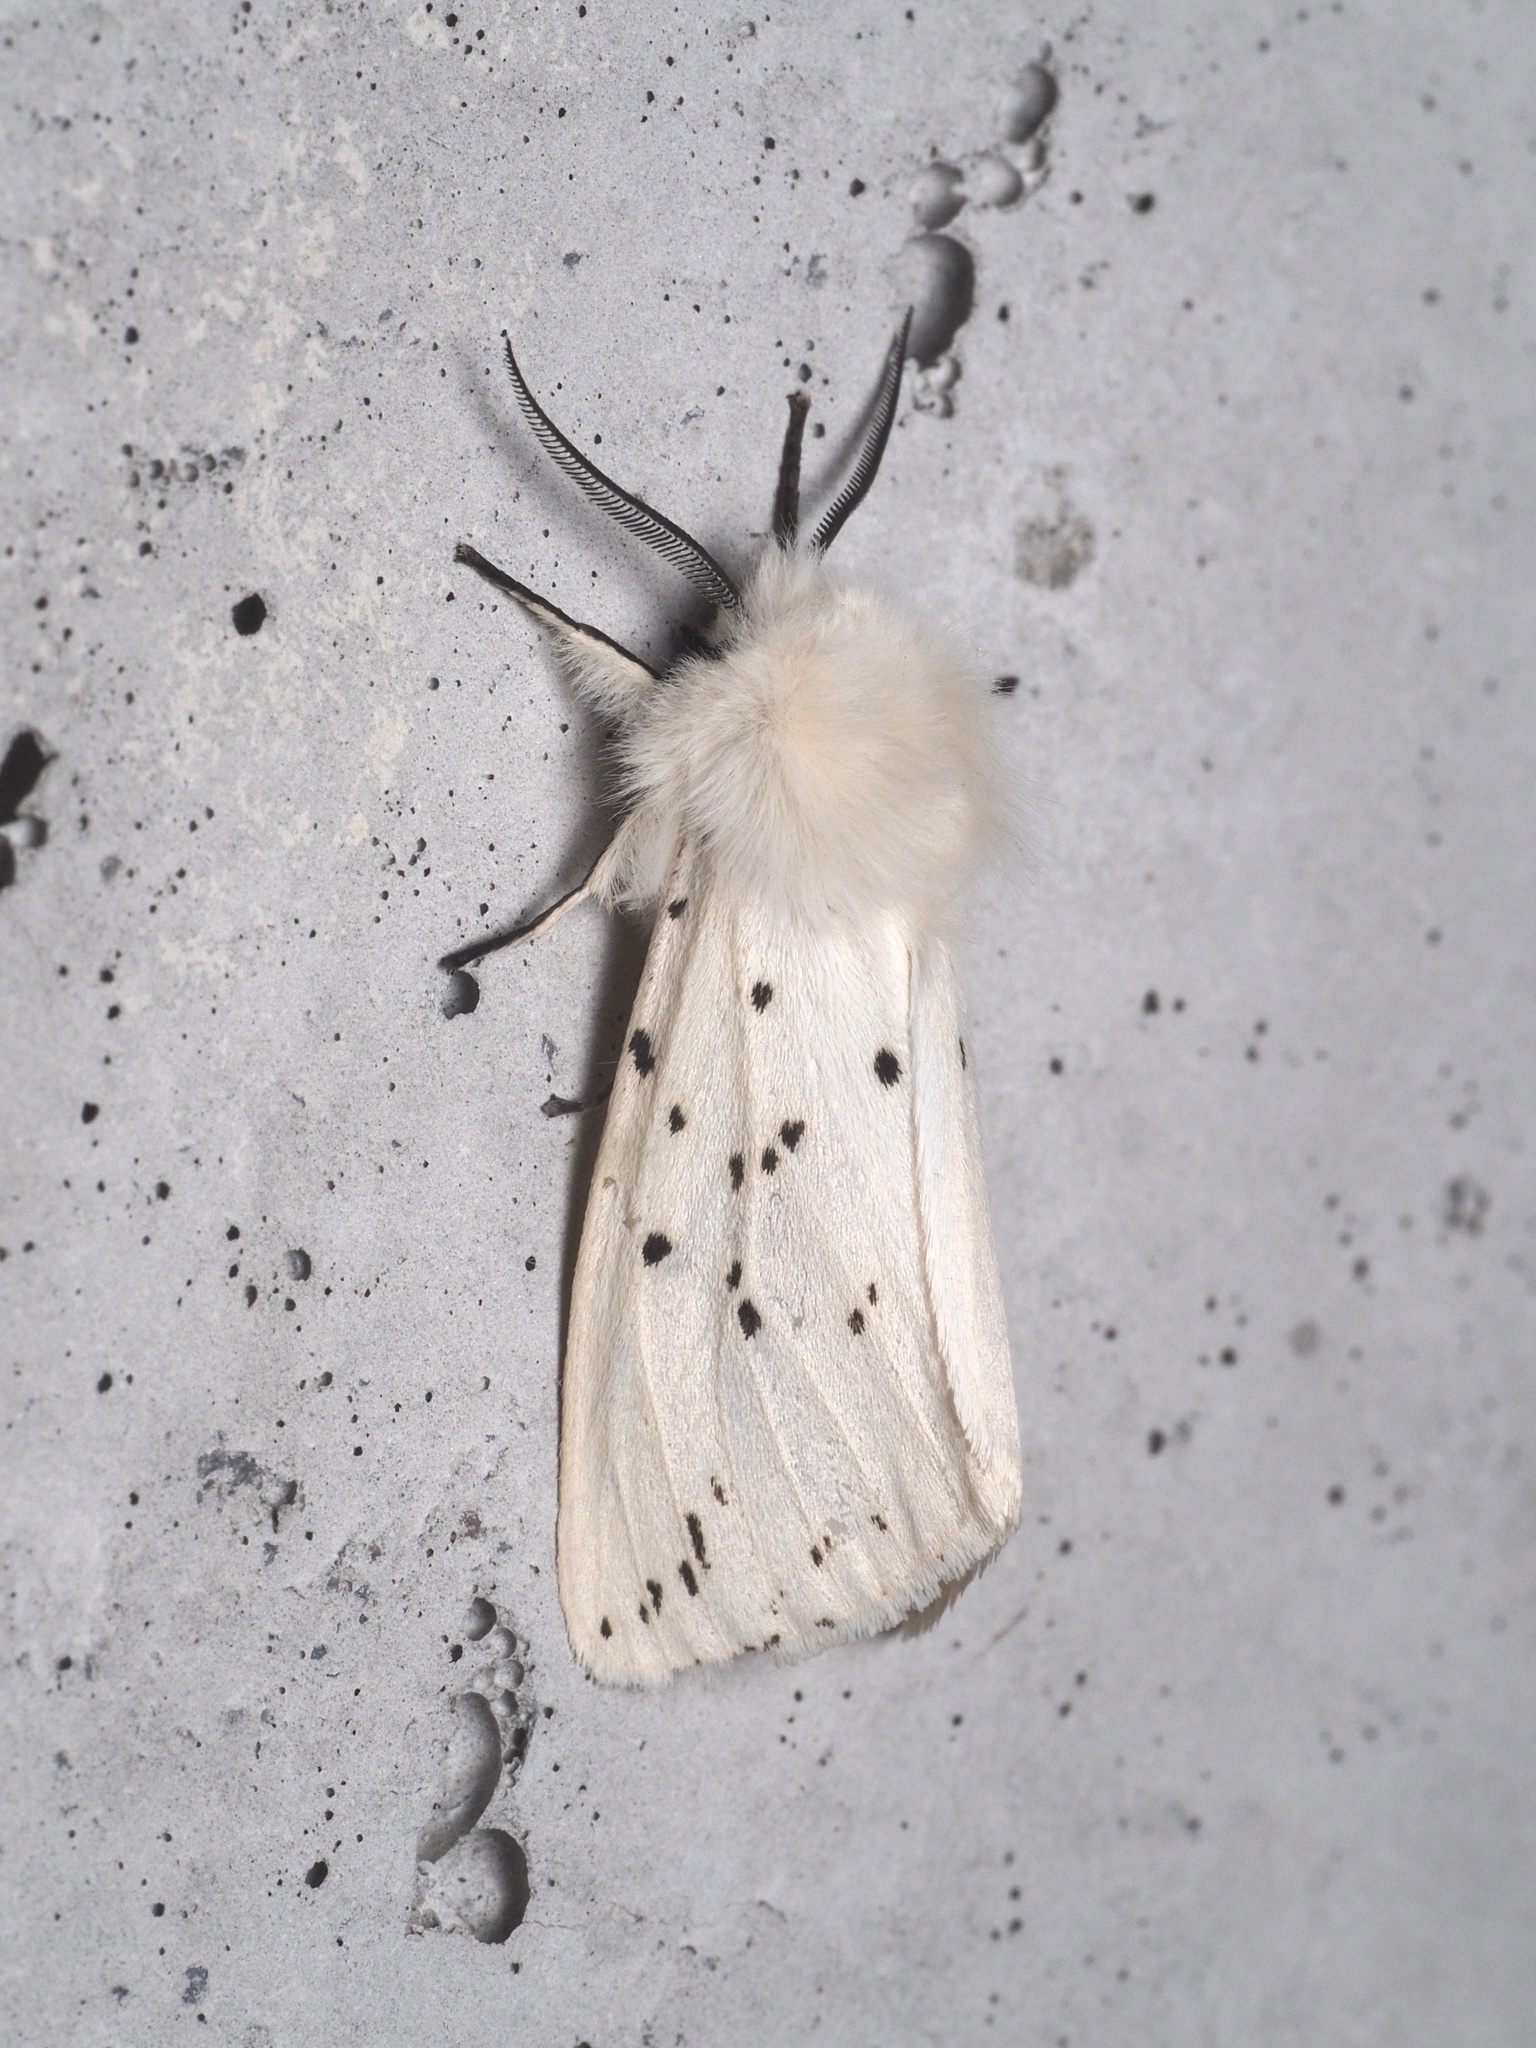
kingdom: Animalia
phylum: Arthropoda
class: Insecta
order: Lepidoptera
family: Erebidae
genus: Spilosoma
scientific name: Spilosoma lubricipeda
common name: White ermine
